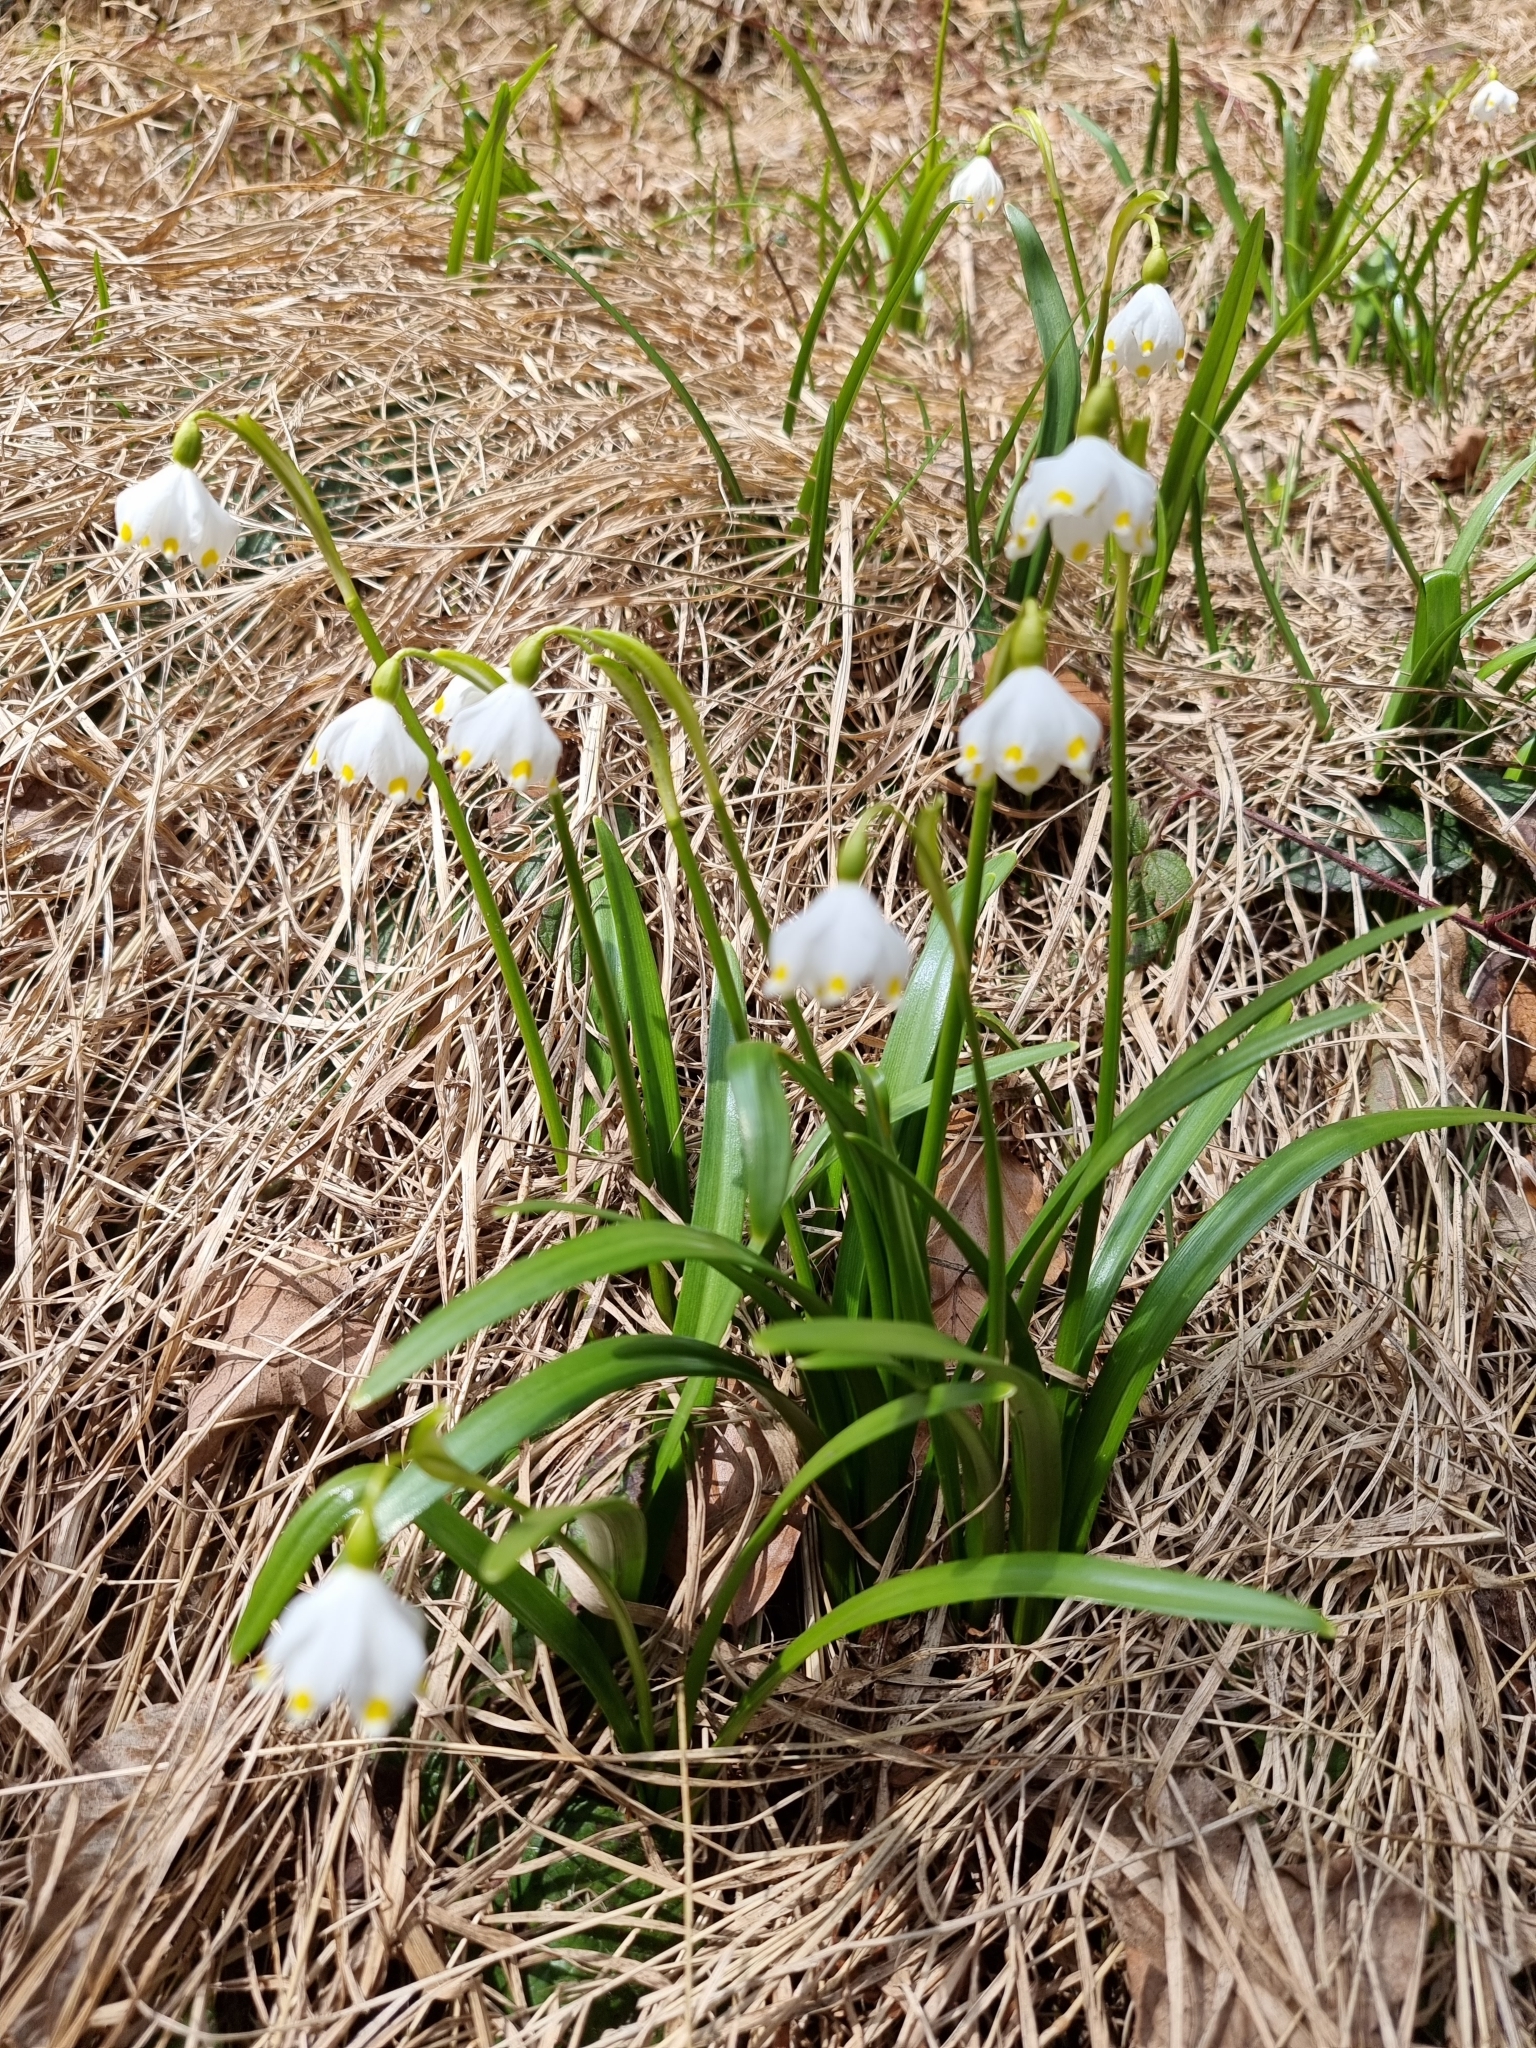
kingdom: Plantae
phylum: Tracheophyta
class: Liliopsida
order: Asparagales
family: Amaryllidaceae
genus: Leucojum
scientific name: Leucojum vernum
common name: Spring snowflake
